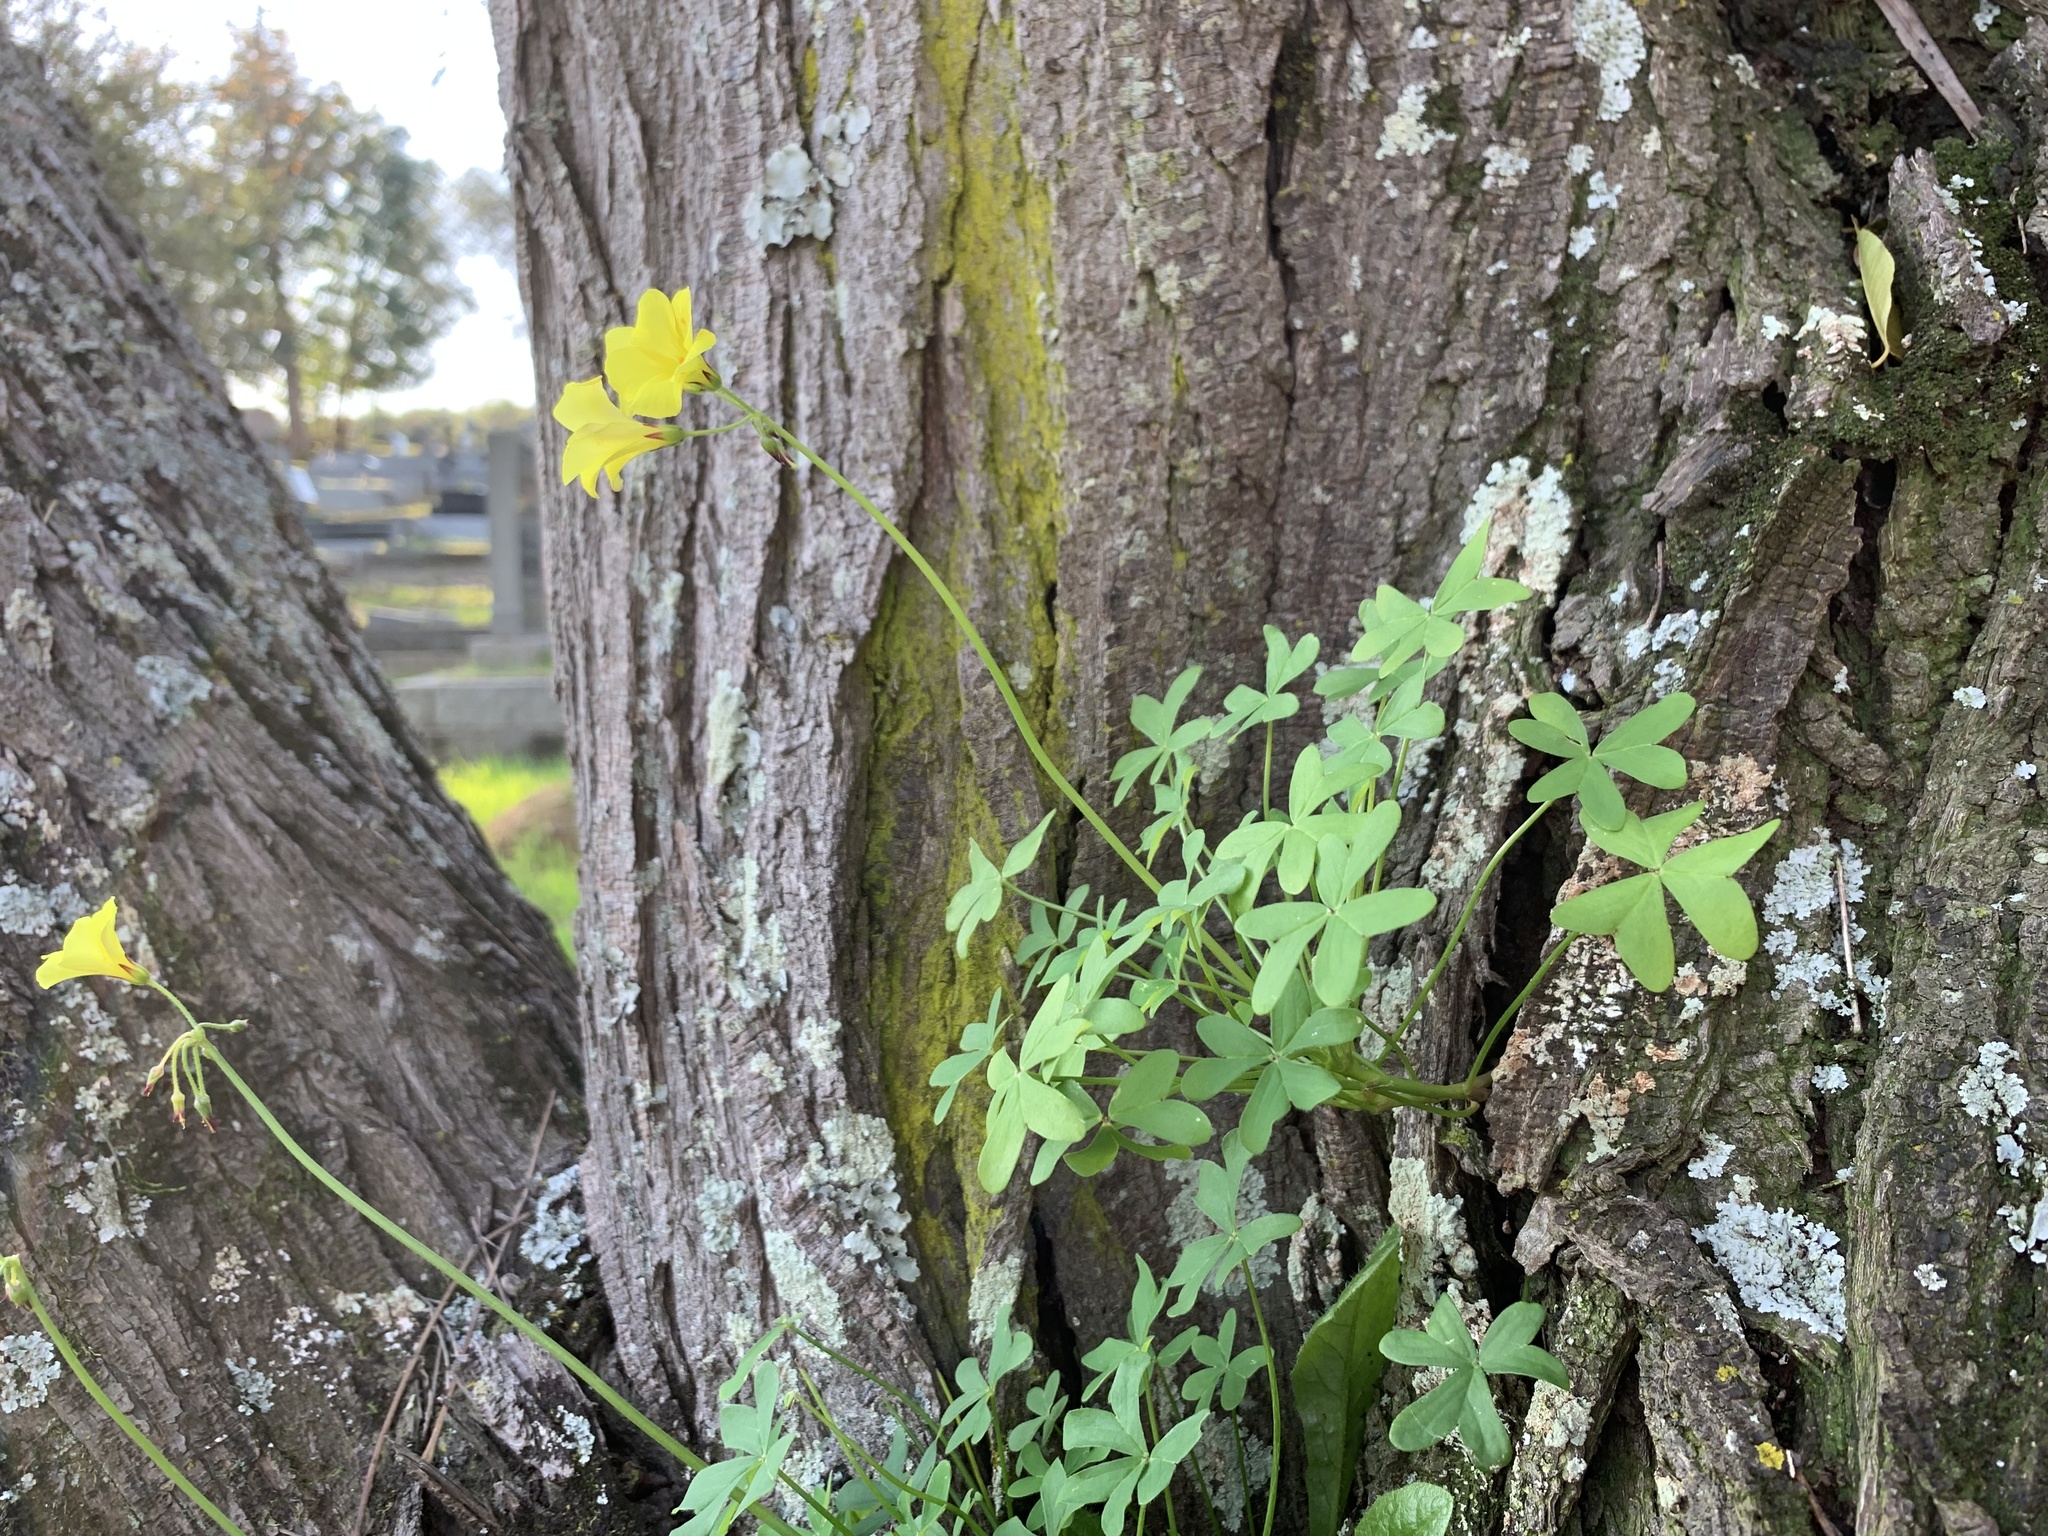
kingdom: Plantae
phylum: Tracheophyta
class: Magnoliopsida
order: Oxalidales
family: Oxalidaceae
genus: Oxalis
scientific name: Oxalis pes-caprae
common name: Bermuda-buttercup
